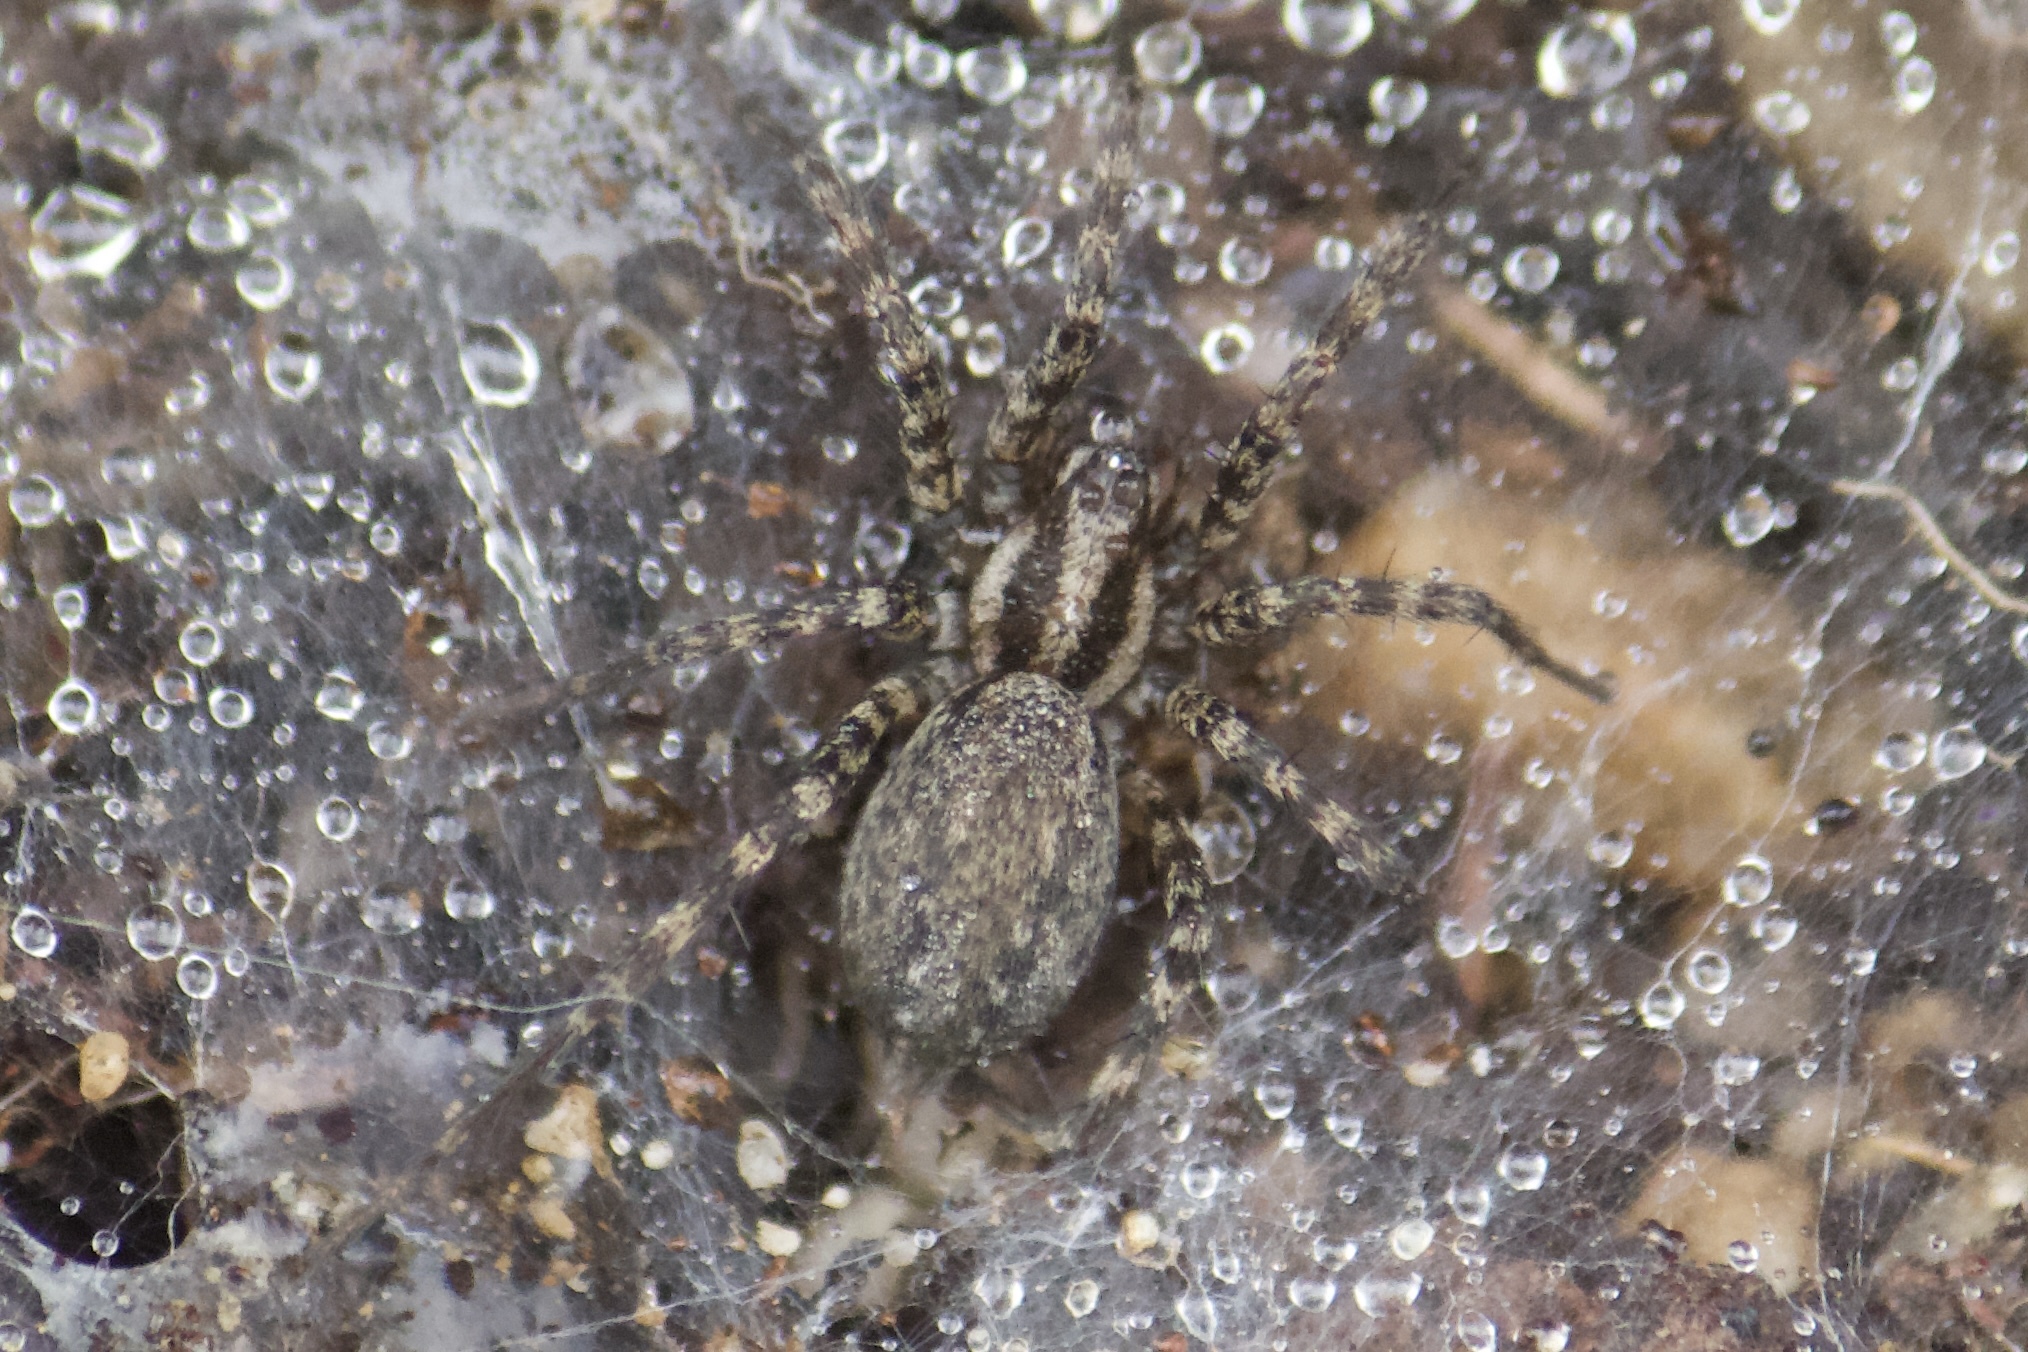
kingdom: Animalia
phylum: Arthropoda
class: Arachnida
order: Araneae
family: Agelenidae
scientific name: Agelenidae
